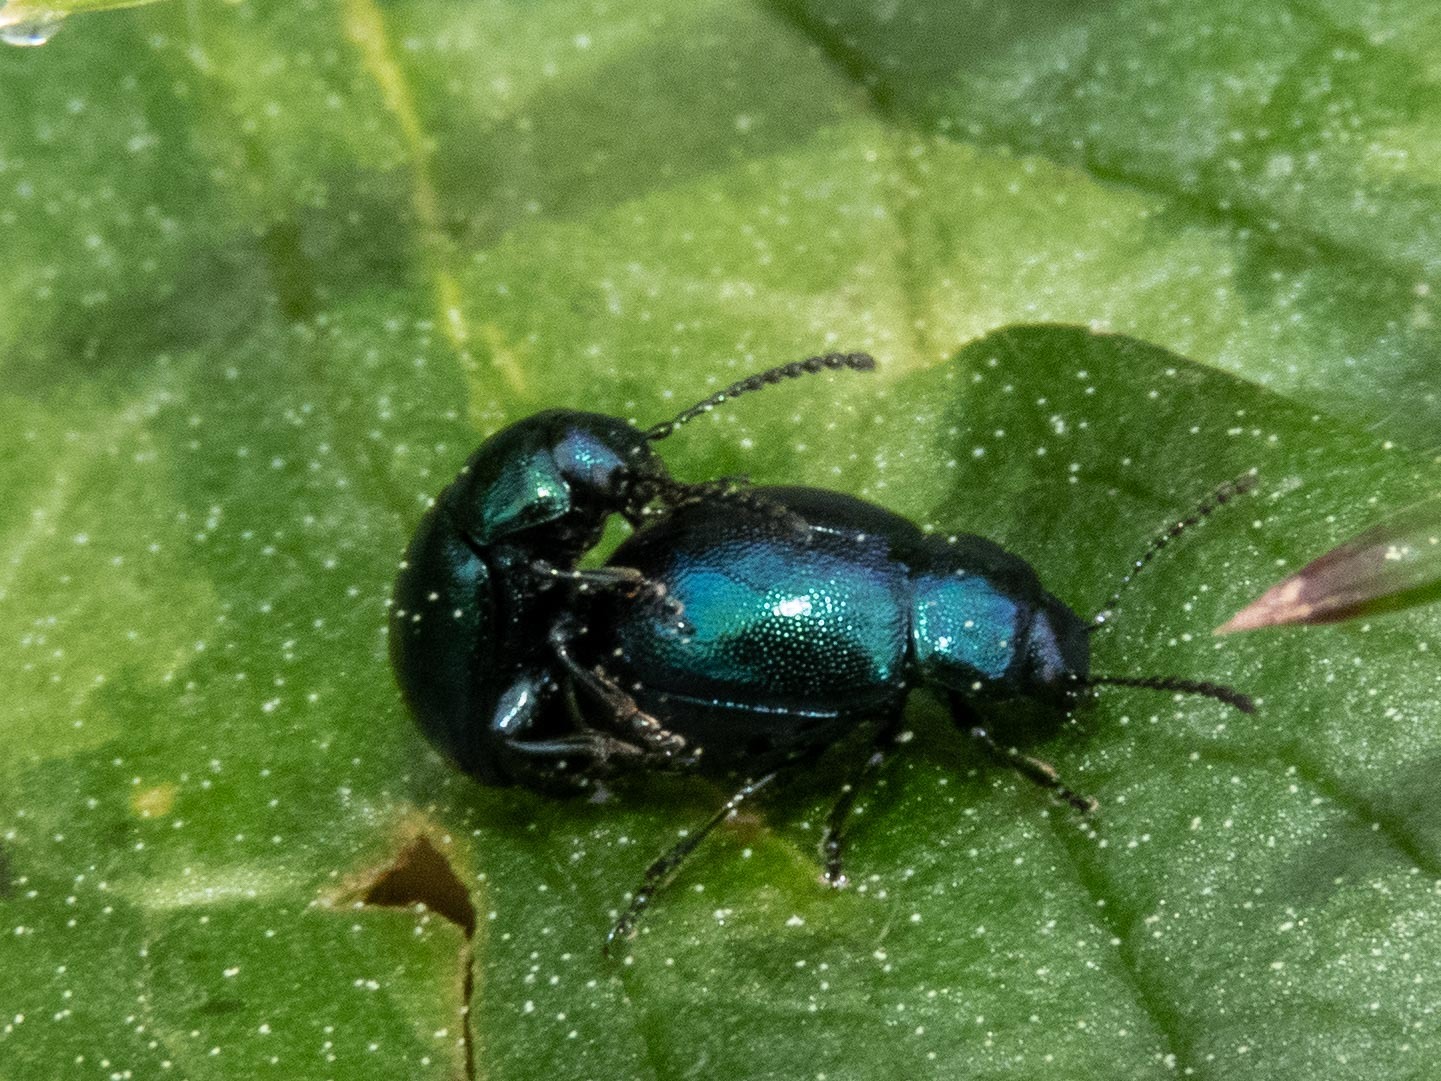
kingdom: Animalia
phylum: Arthropoda
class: Insecta
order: Coleoptera
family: Chrysomelidae
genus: Gastrophysa
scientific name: Gastrophysa janthina
